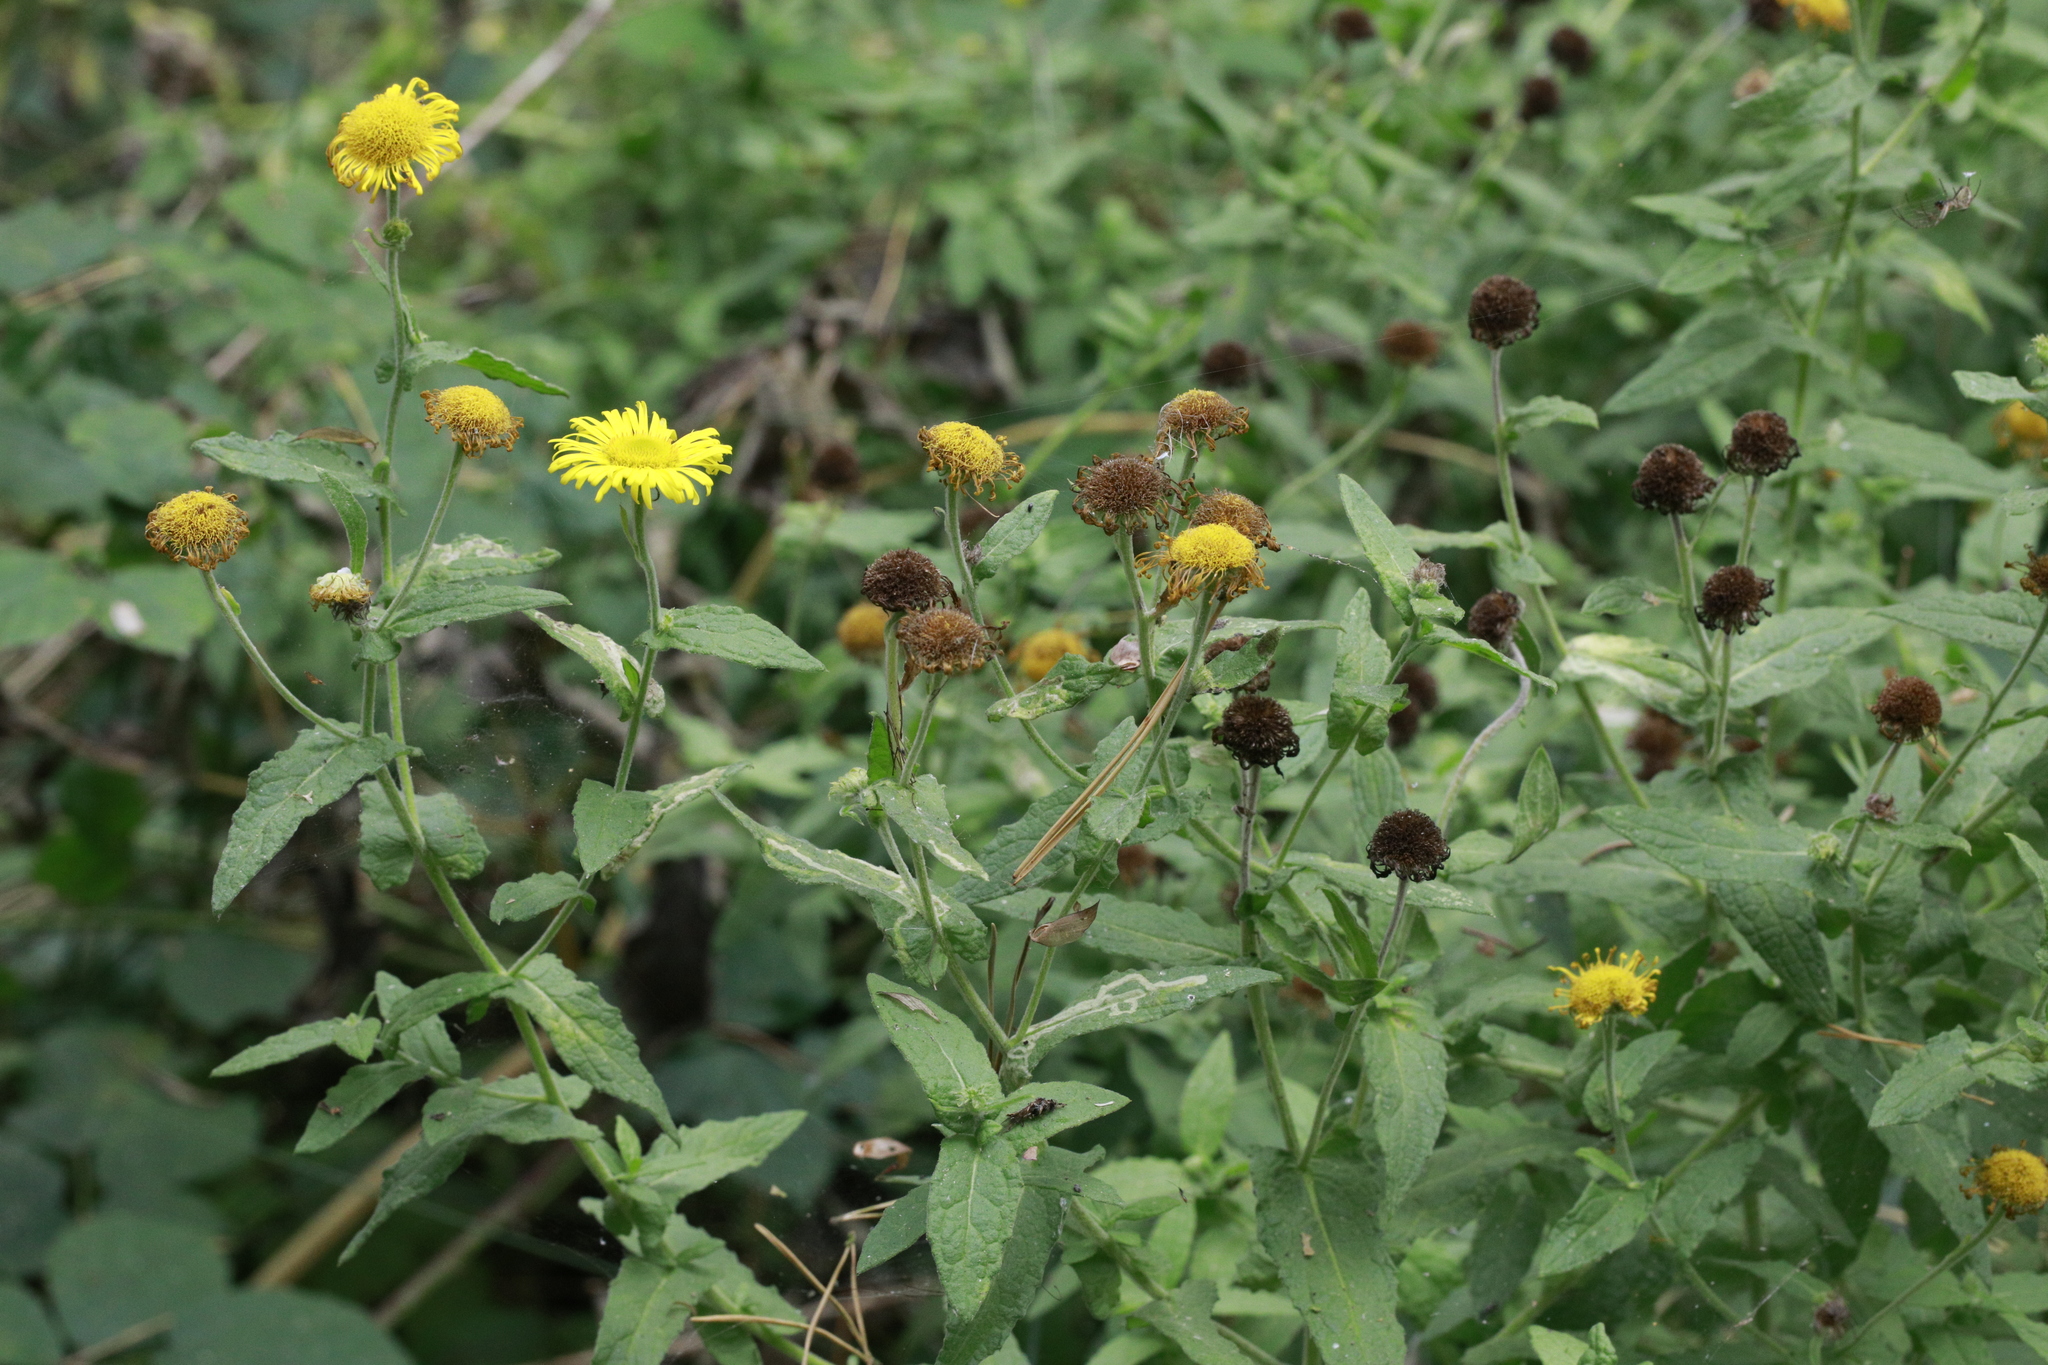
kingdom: Plantae
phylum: Tracheophyta
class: Magnoliopsida
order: Asterales
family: Asteraceae
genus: Pulicaria
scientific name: Pulicaria dysenterica
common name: Common fleabane
